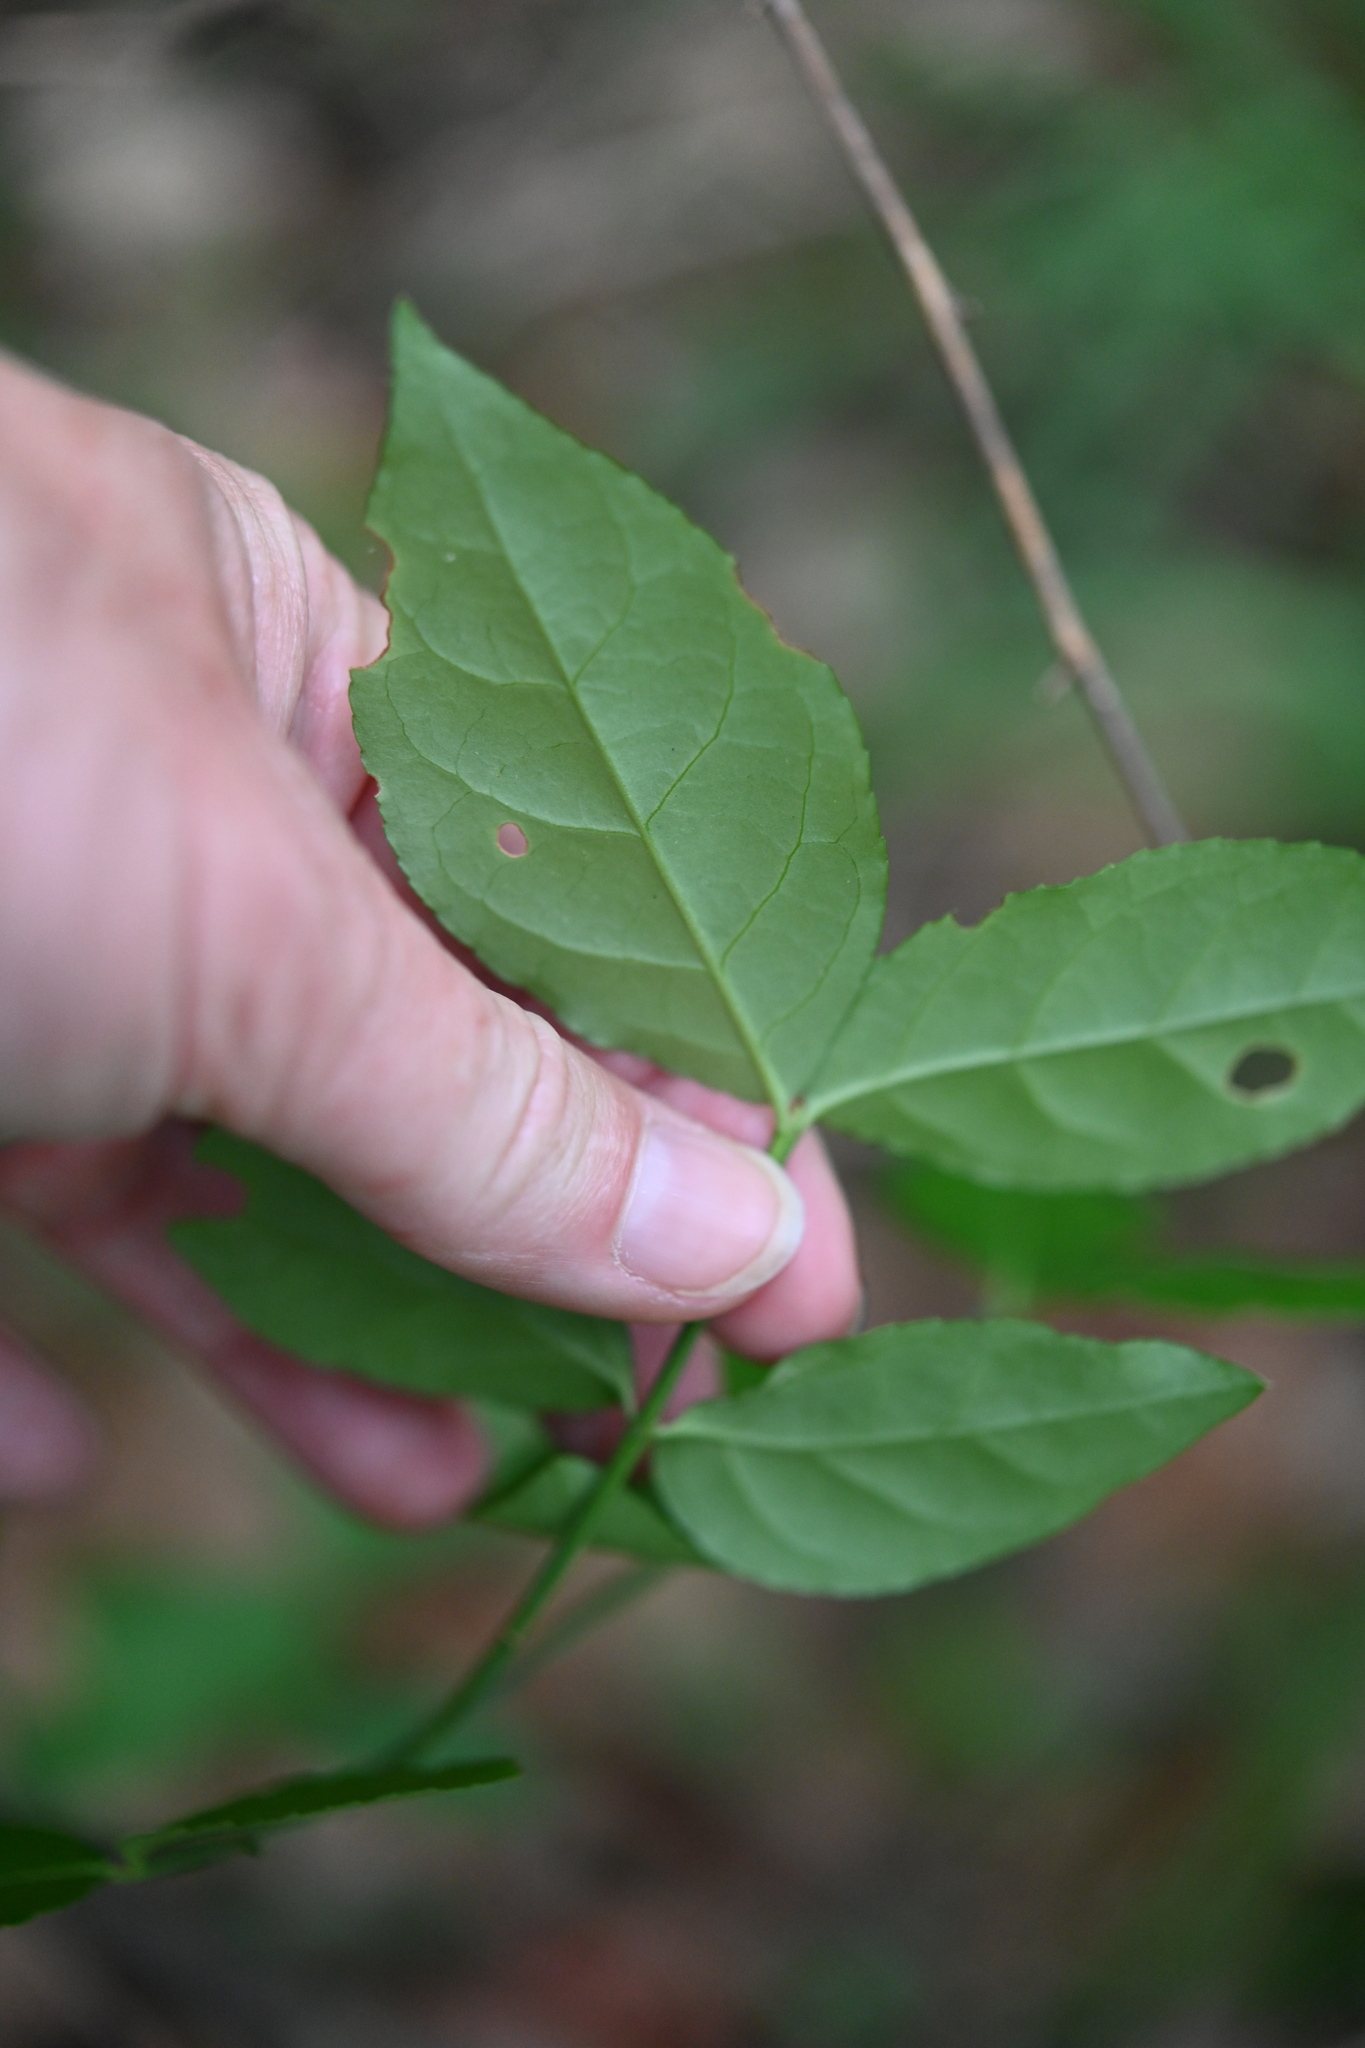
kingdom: Plantae
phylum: Tracheophyta
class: Magnoliopsida
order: Celastrales
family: Celastraceae
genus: Euonymus
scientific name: Euonymus americanus
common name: Bursting-heart
